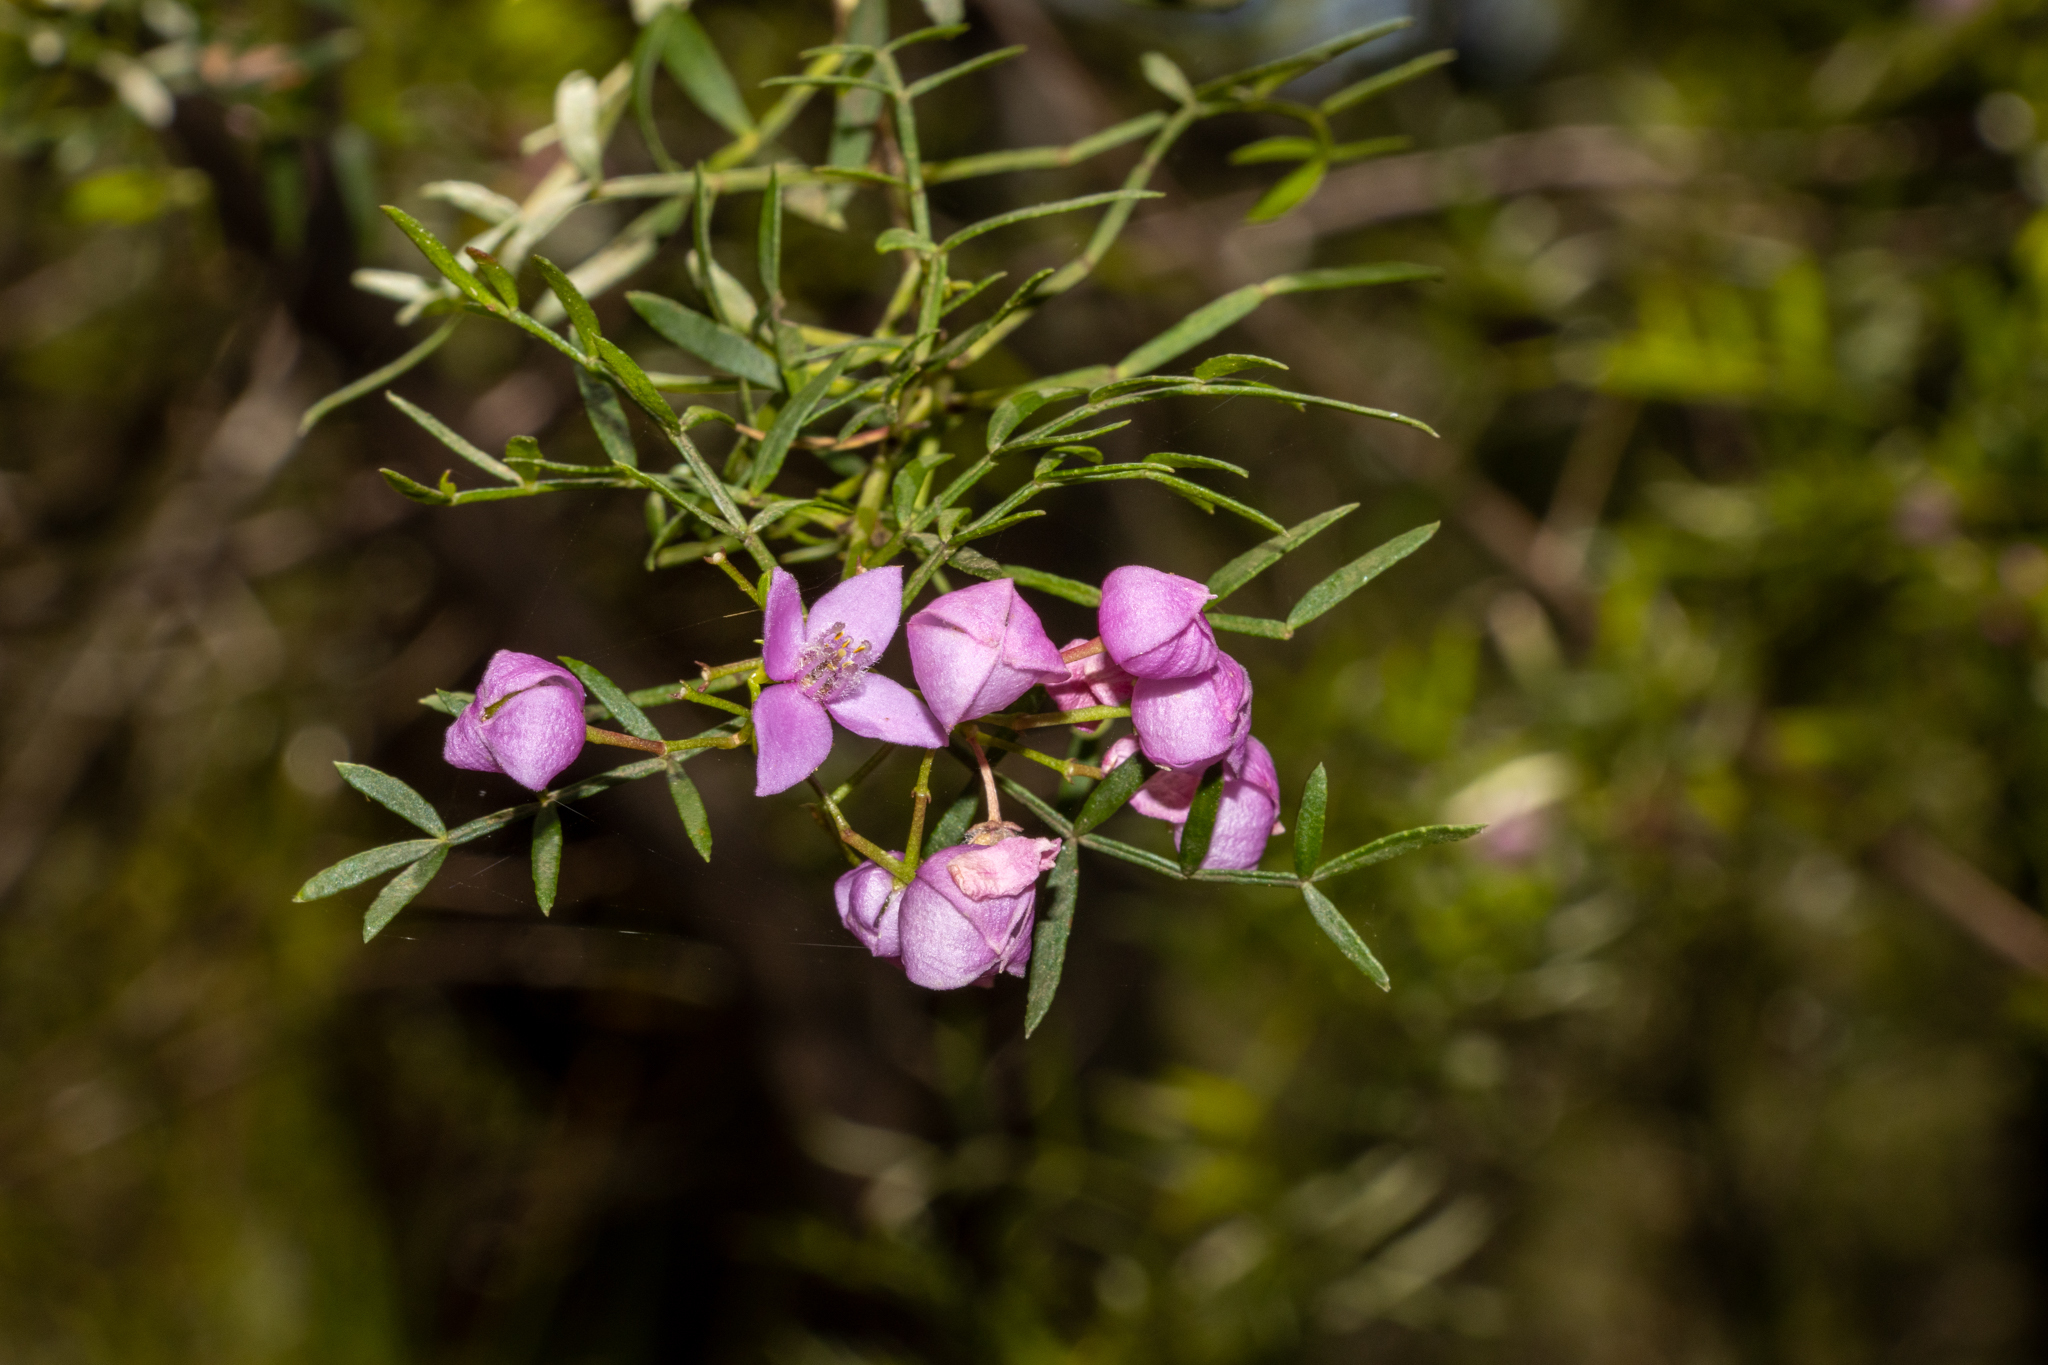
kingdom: Plantae
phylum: Tracheophyta
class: Magnoliopsida
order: Sapindales
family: Rutaceae
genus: Boronia
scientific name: Boronia pinnata
